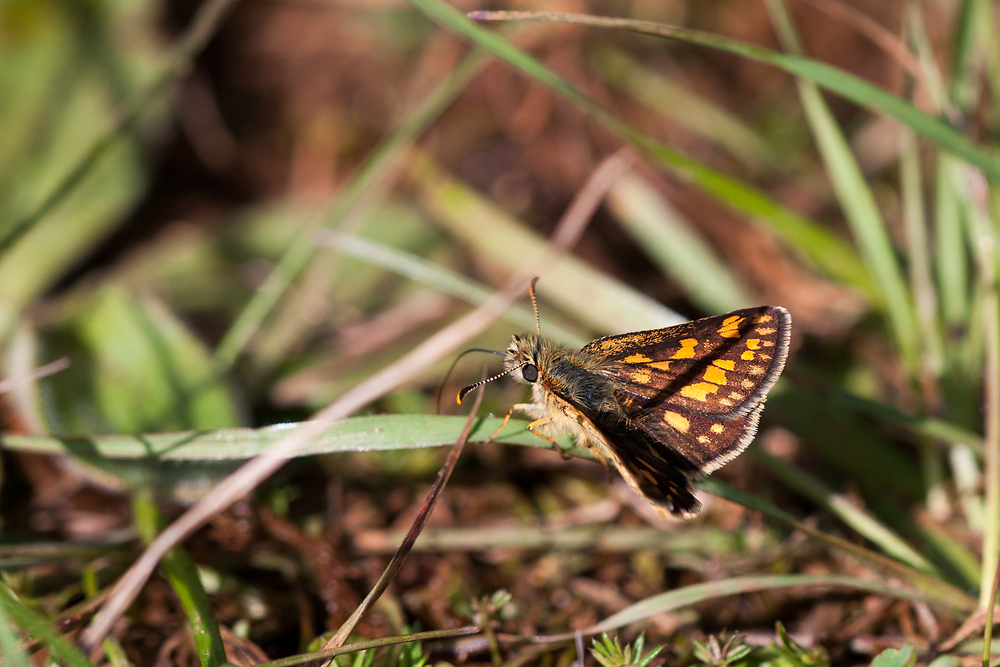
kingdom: Animalia
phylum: Arthropoda
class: Insecta
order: Lepidoptera
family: Hesperiidae
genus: Carterocephalus
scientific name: Carterocephalus palaemon
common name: Chequered skipper
